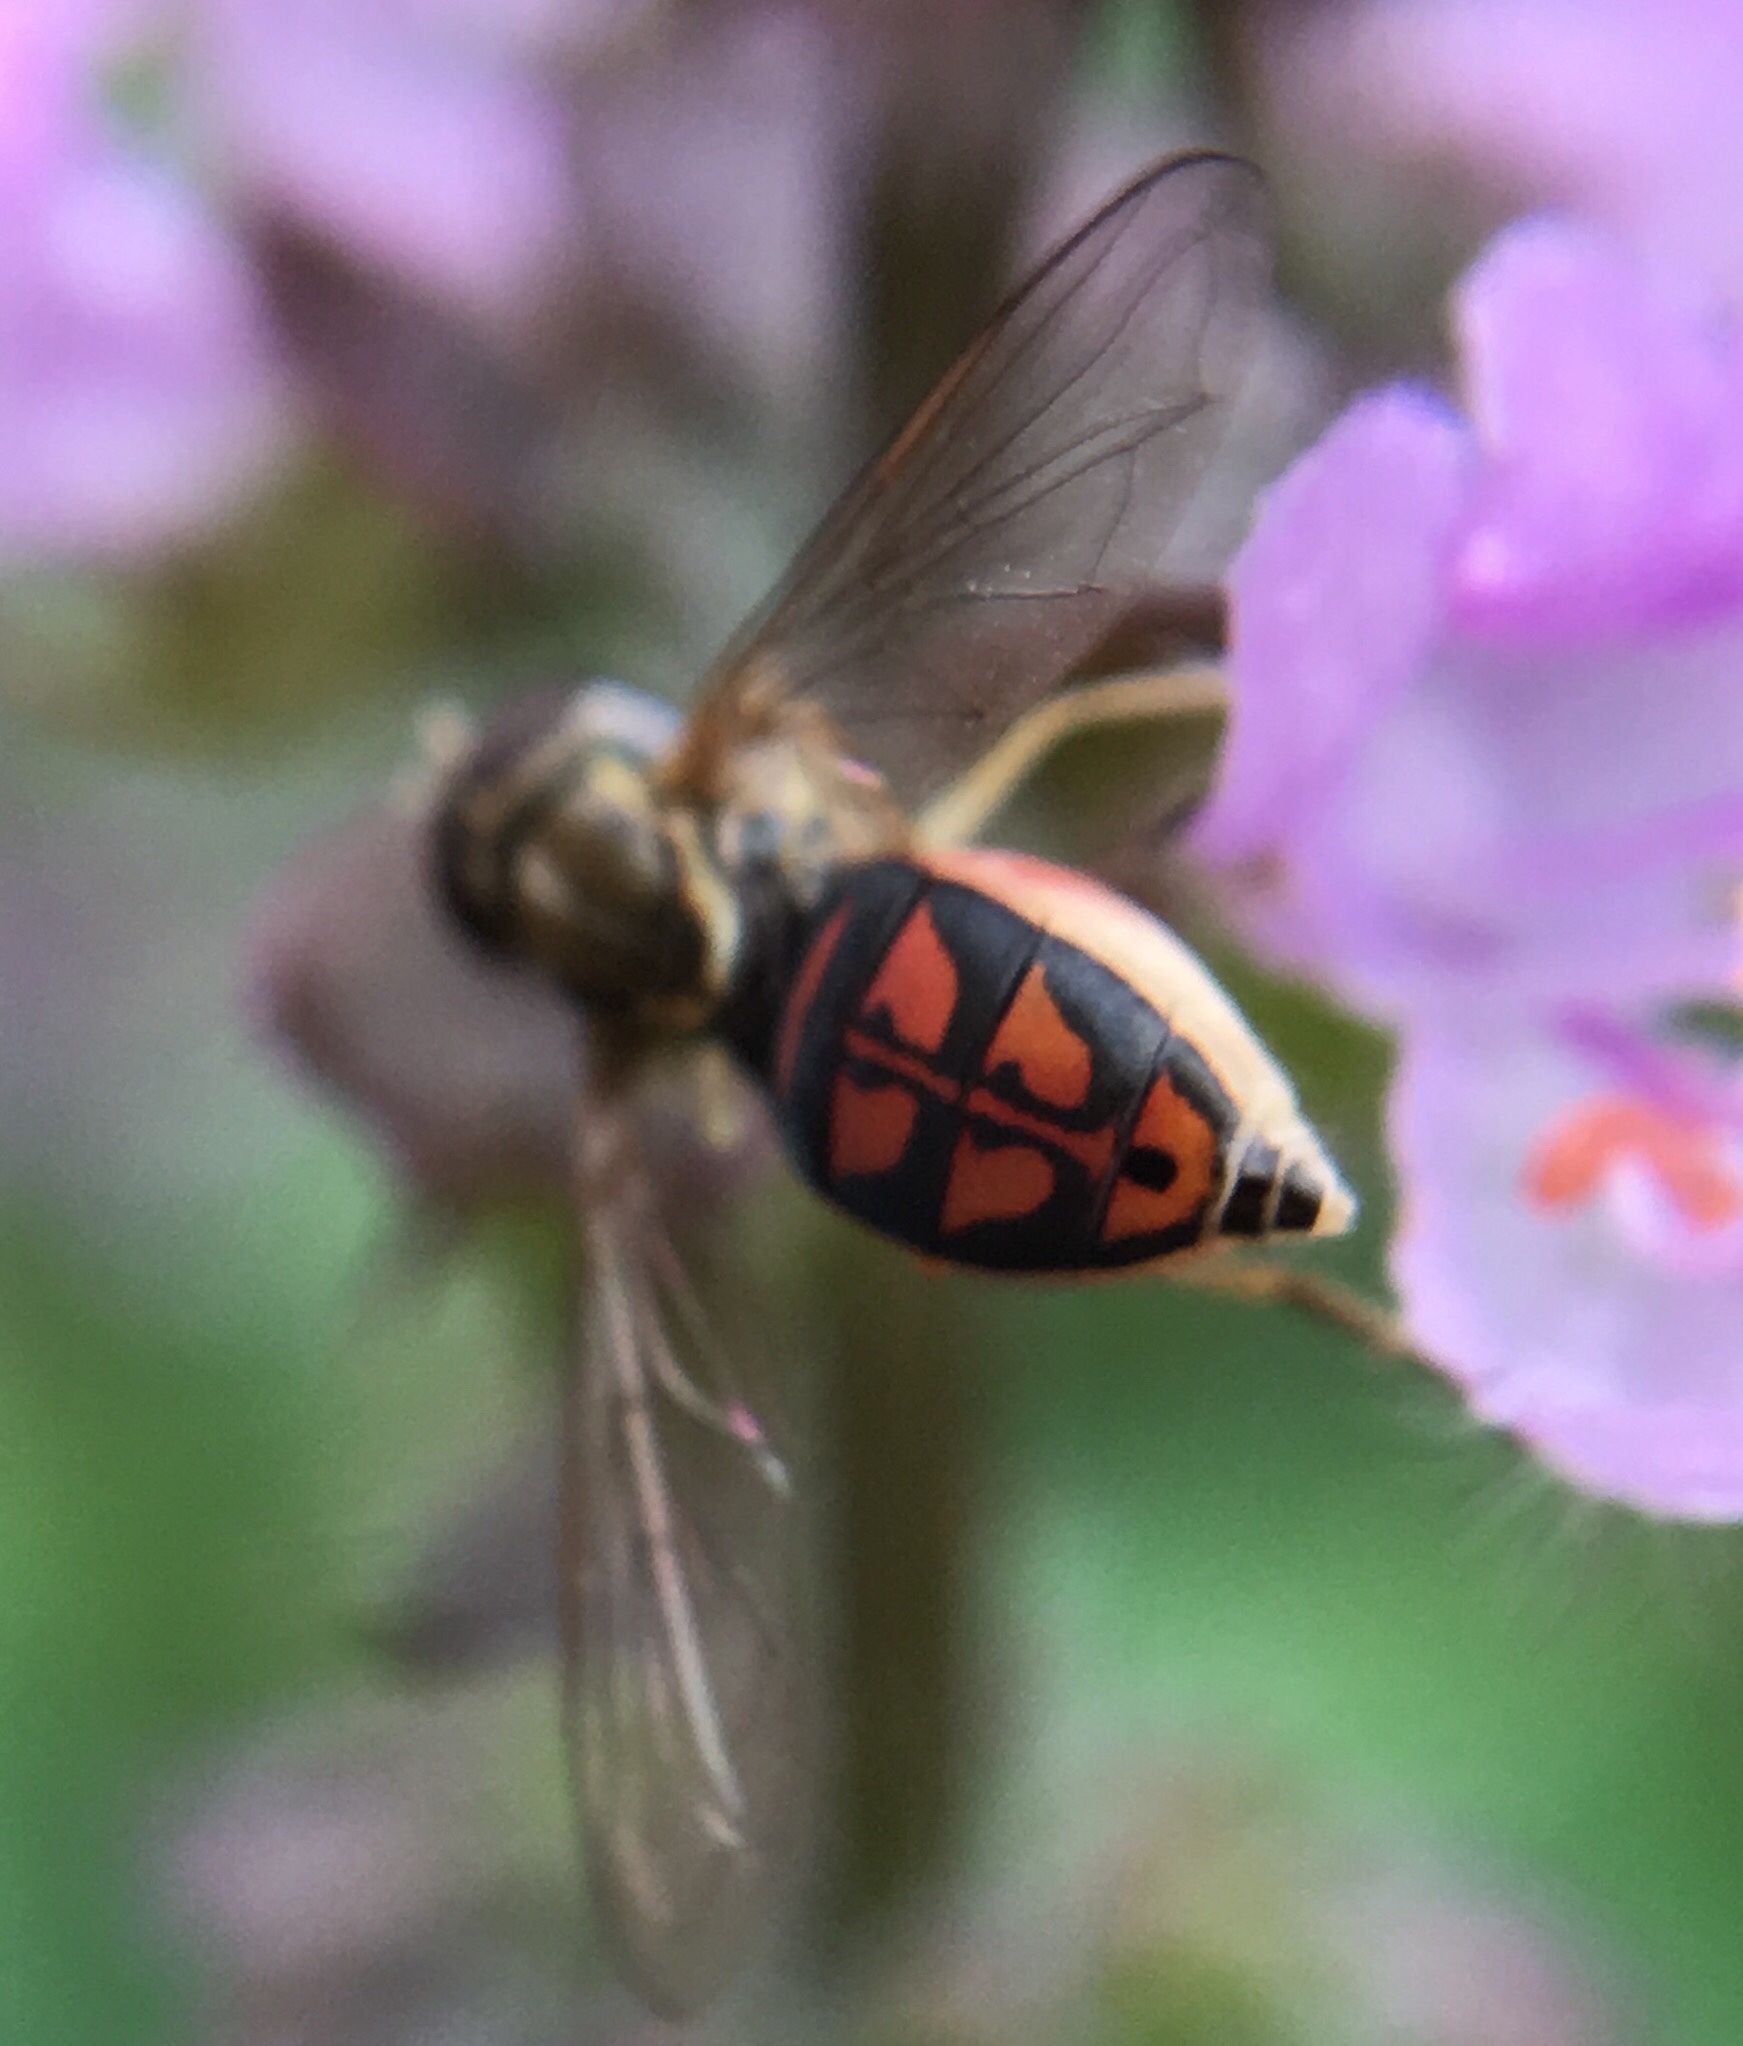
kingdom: Animalia
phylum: Arthropoda
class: Insecta
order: Diptera
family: Syrphidae
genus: Toxomerus
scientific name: Toxomerus marginatus
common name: Syrphid fly
